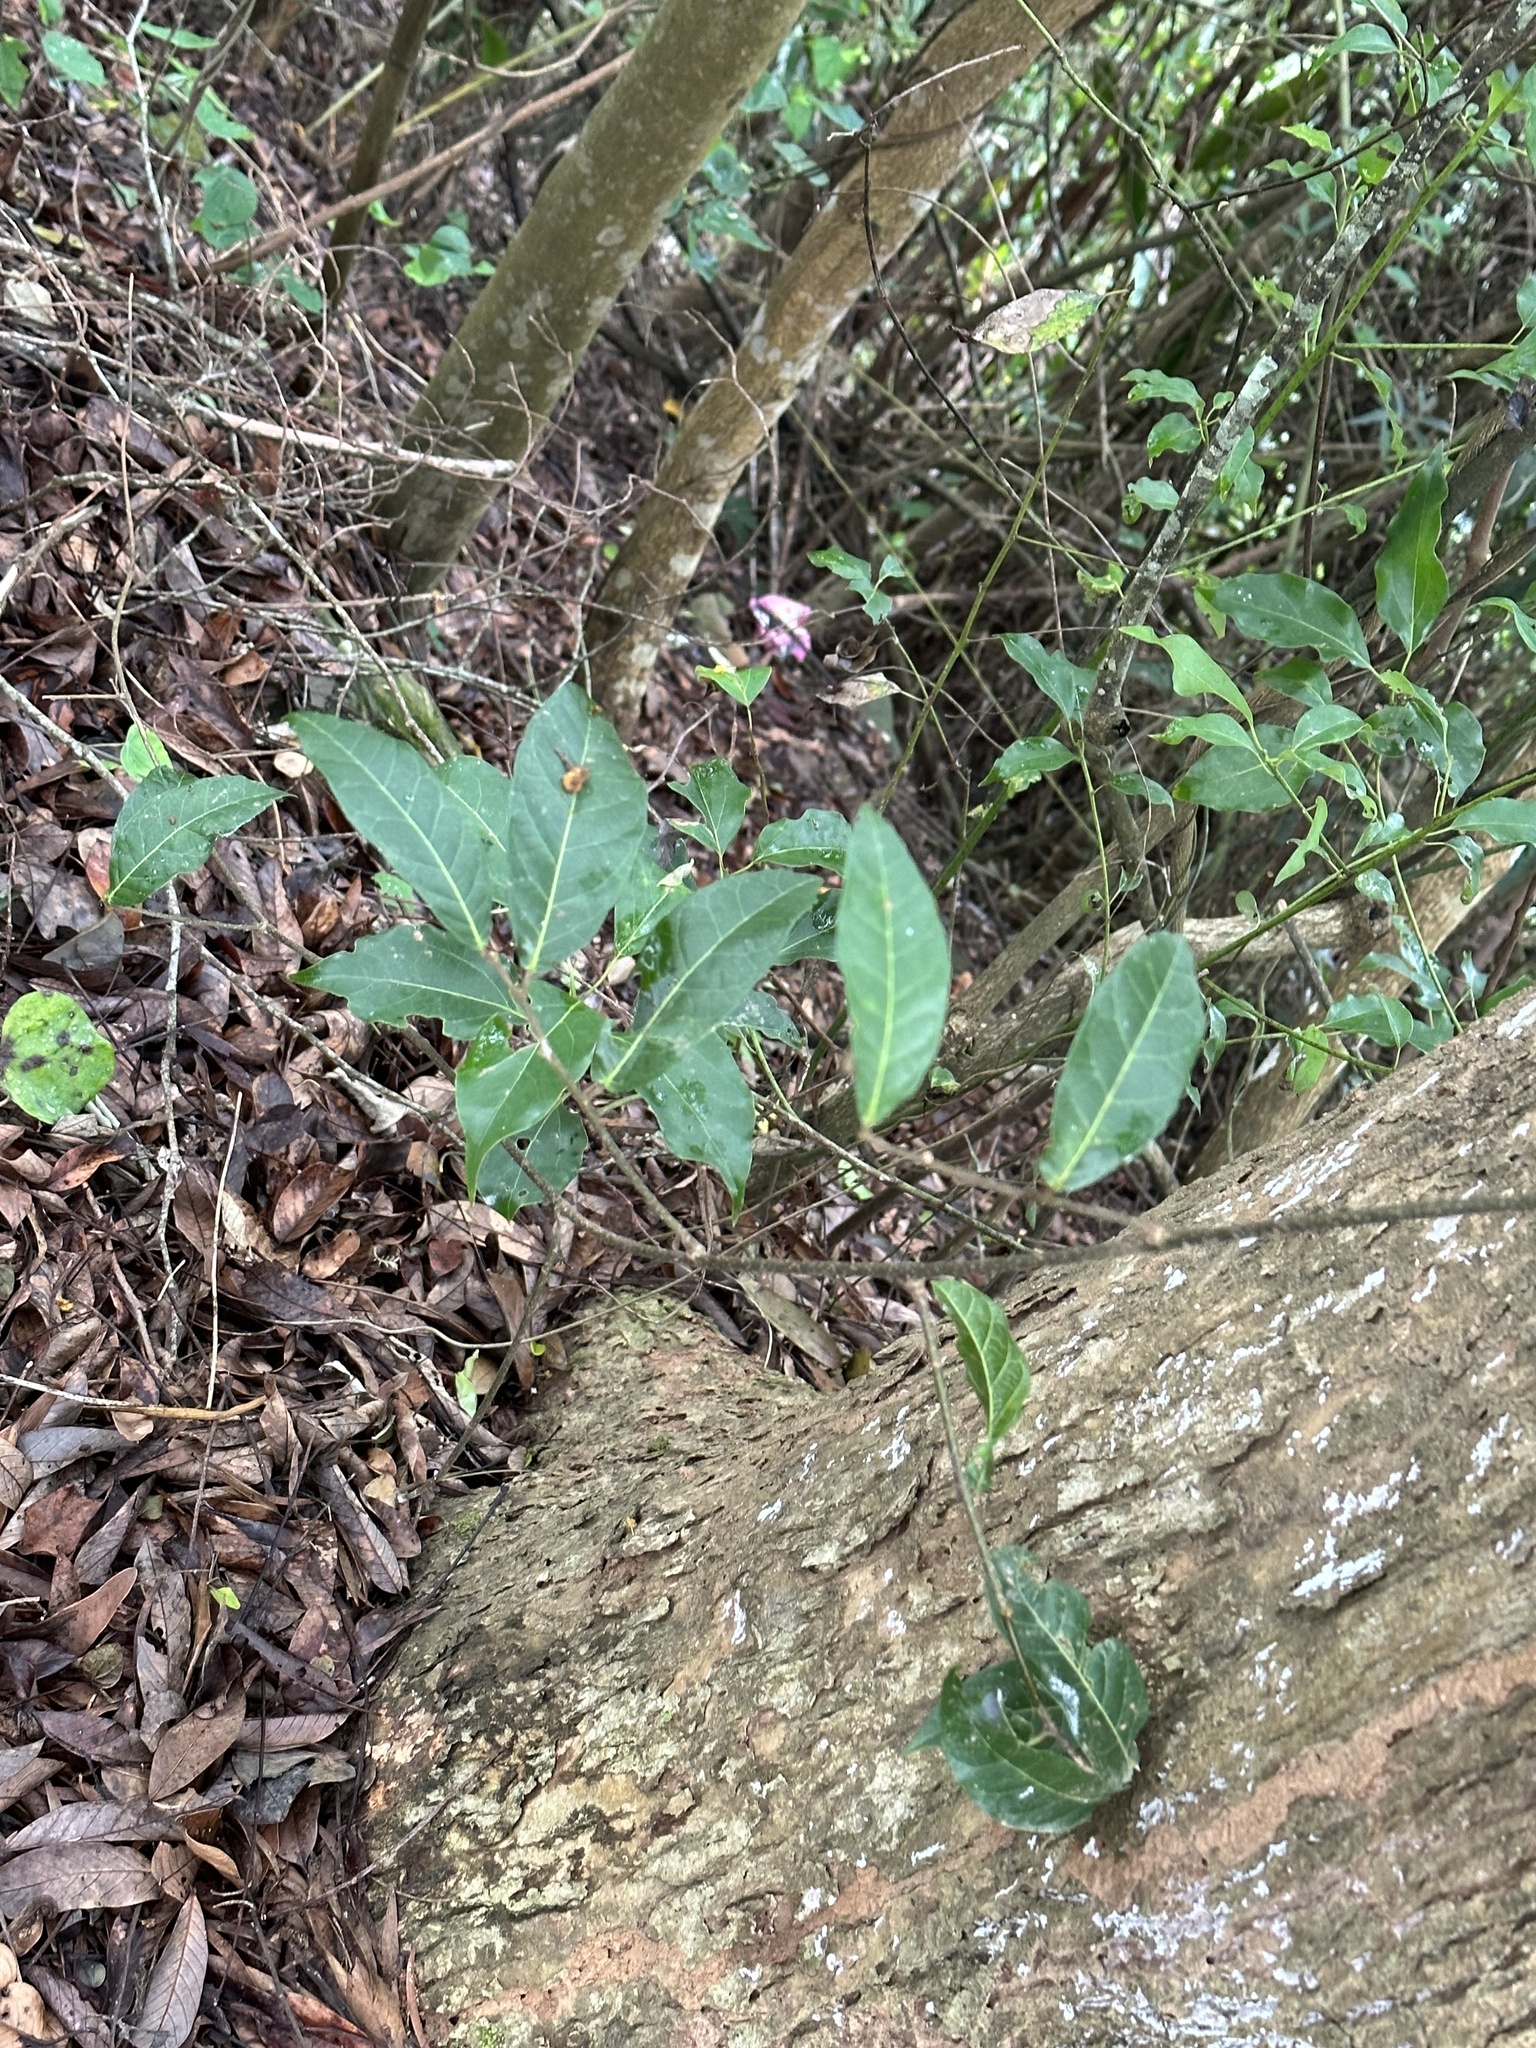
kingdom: Plantae
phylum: Tracheophyta
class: Magnoliopsida
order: Rosales
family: Moraceae
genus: Malaisia
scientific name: Malaisia scandens
